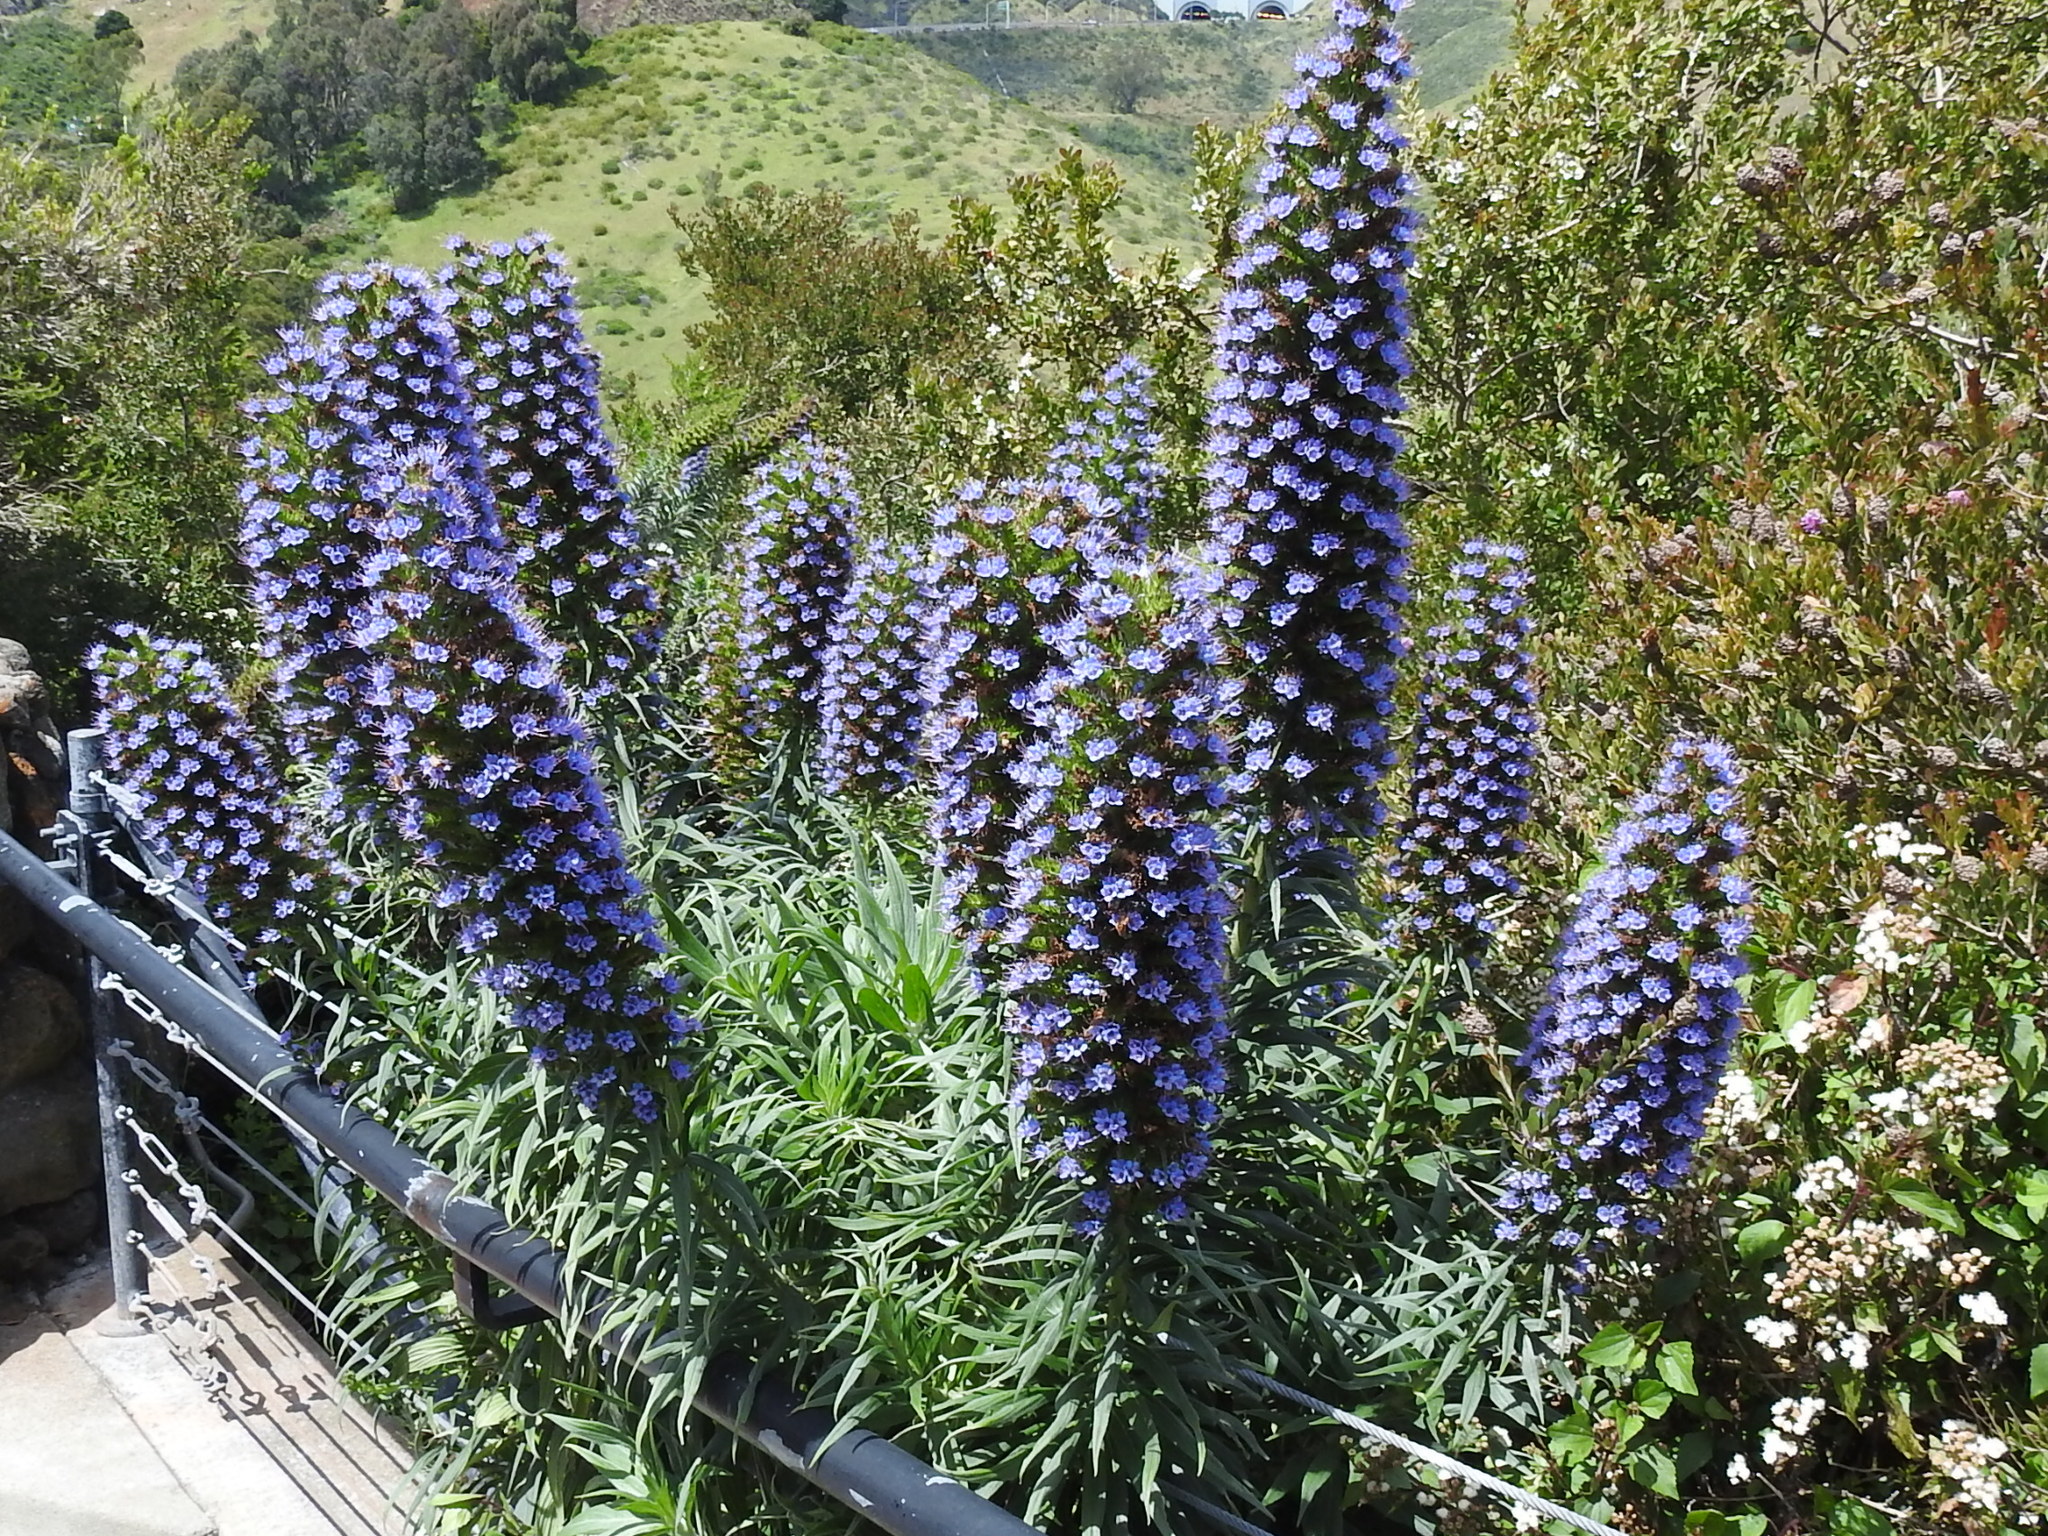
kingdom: Plantae
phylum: Tracheophyta
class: Magnoliopsida
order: Boraginales
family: Boraginaceae
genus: Echium
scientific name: Echium candicans
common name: Pride of madeira
